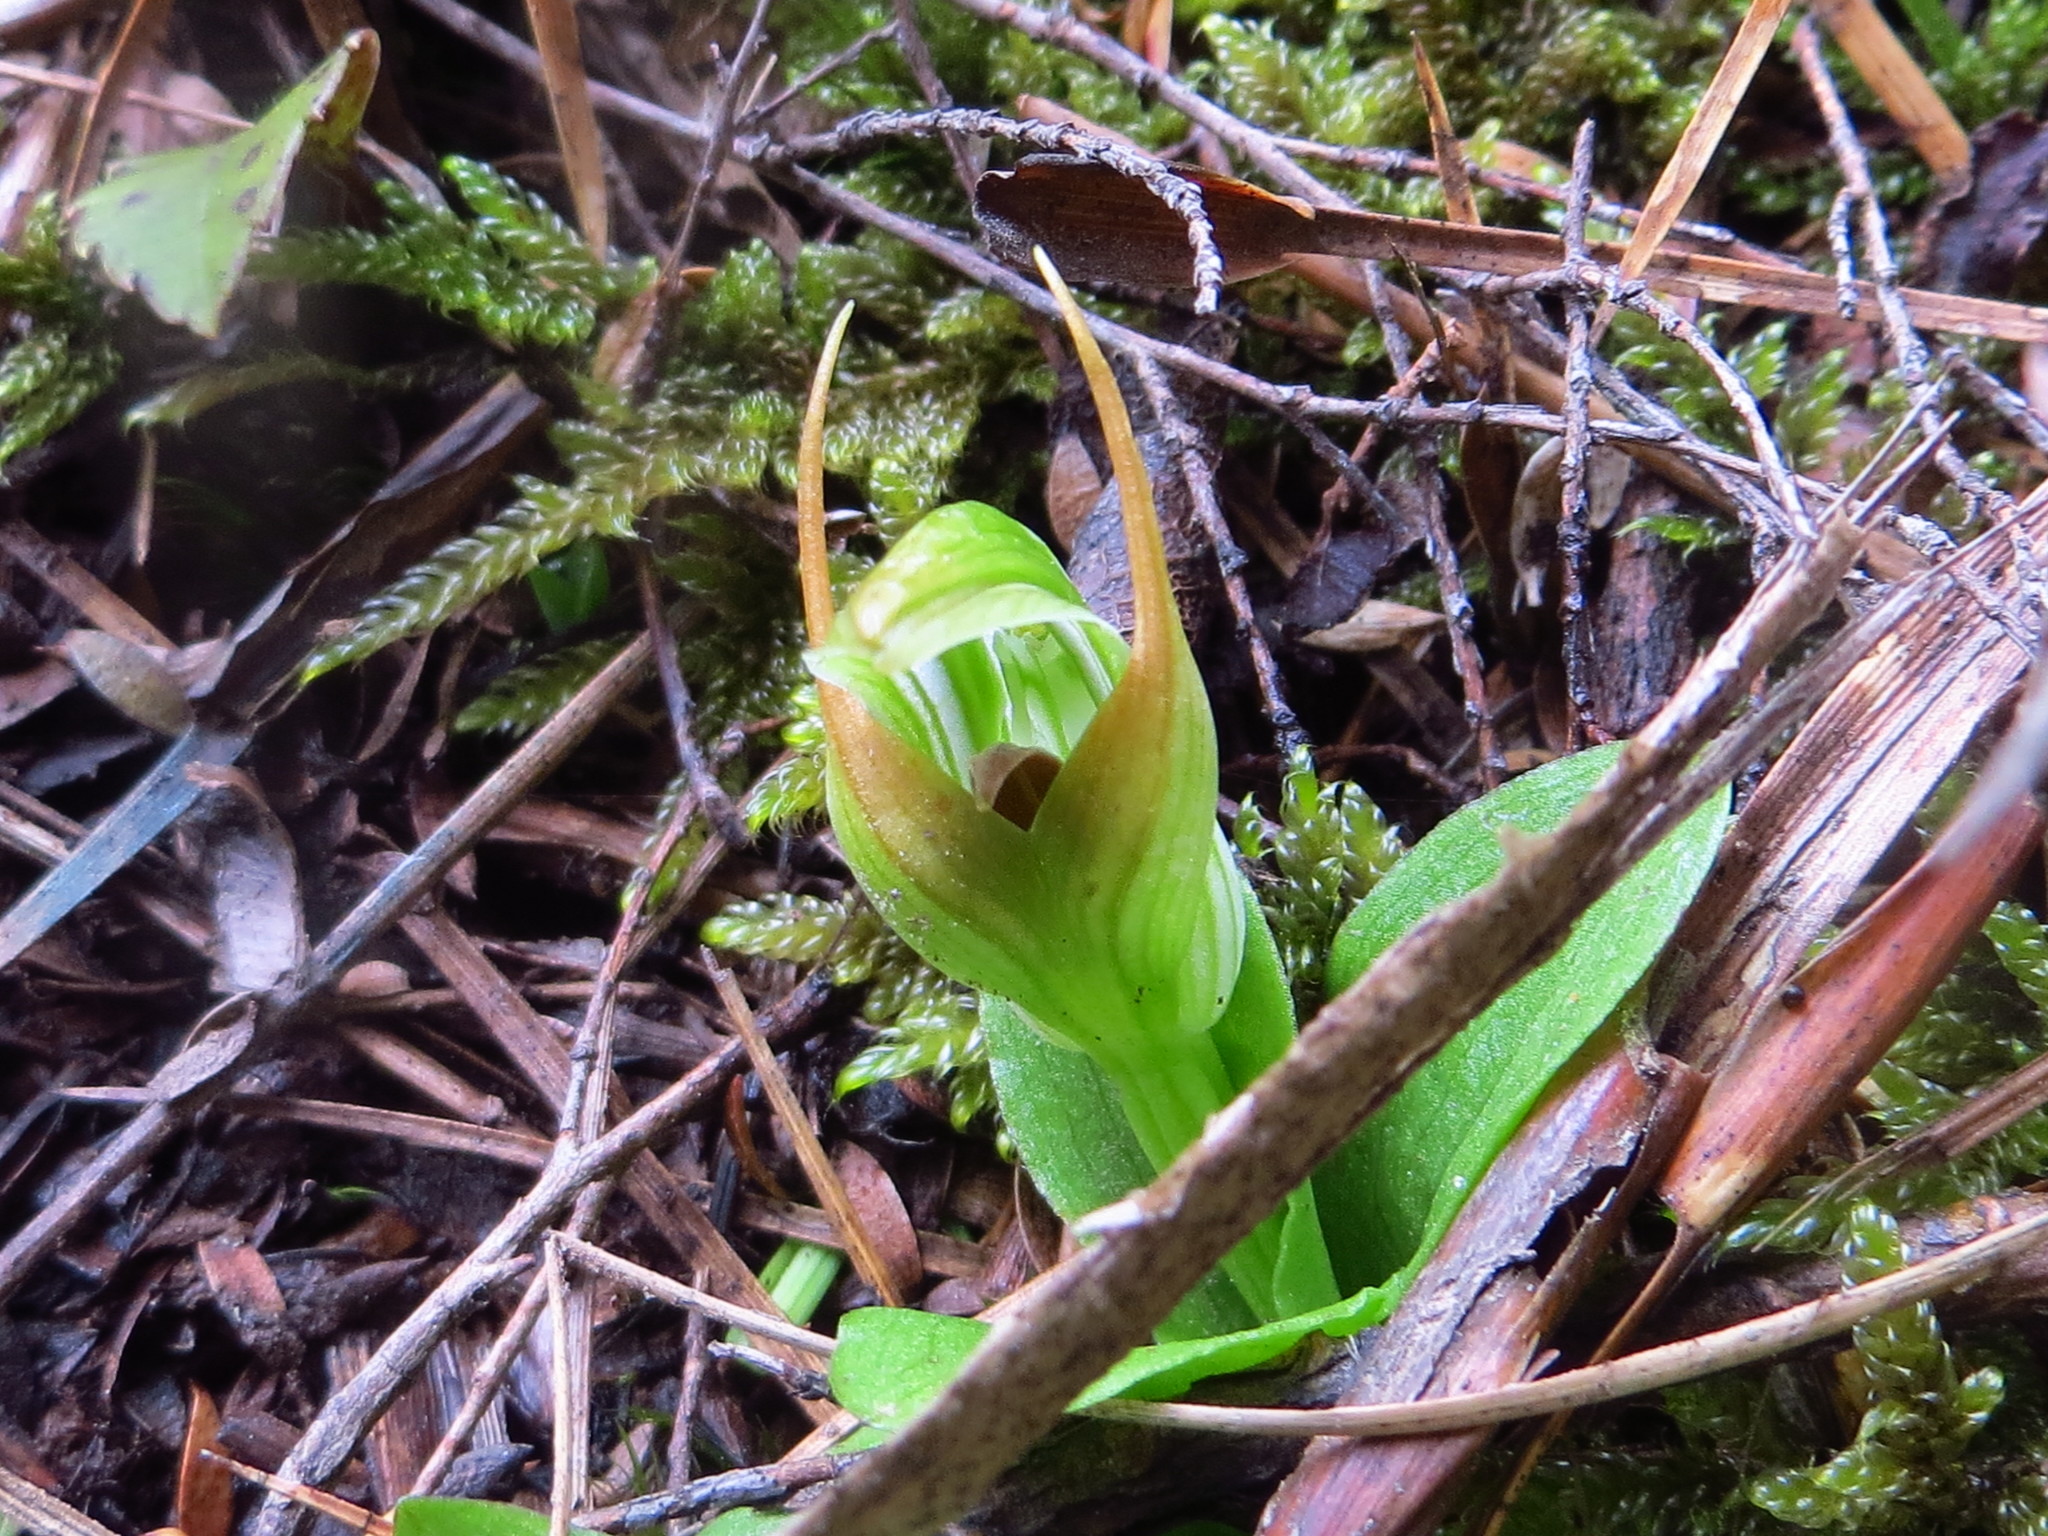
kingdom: Plantae
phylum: Tracheophyta
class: Liliopsida
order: Asparagales
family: Orchidaceae
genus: Pterostylis
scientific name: Pterostylis venosa
